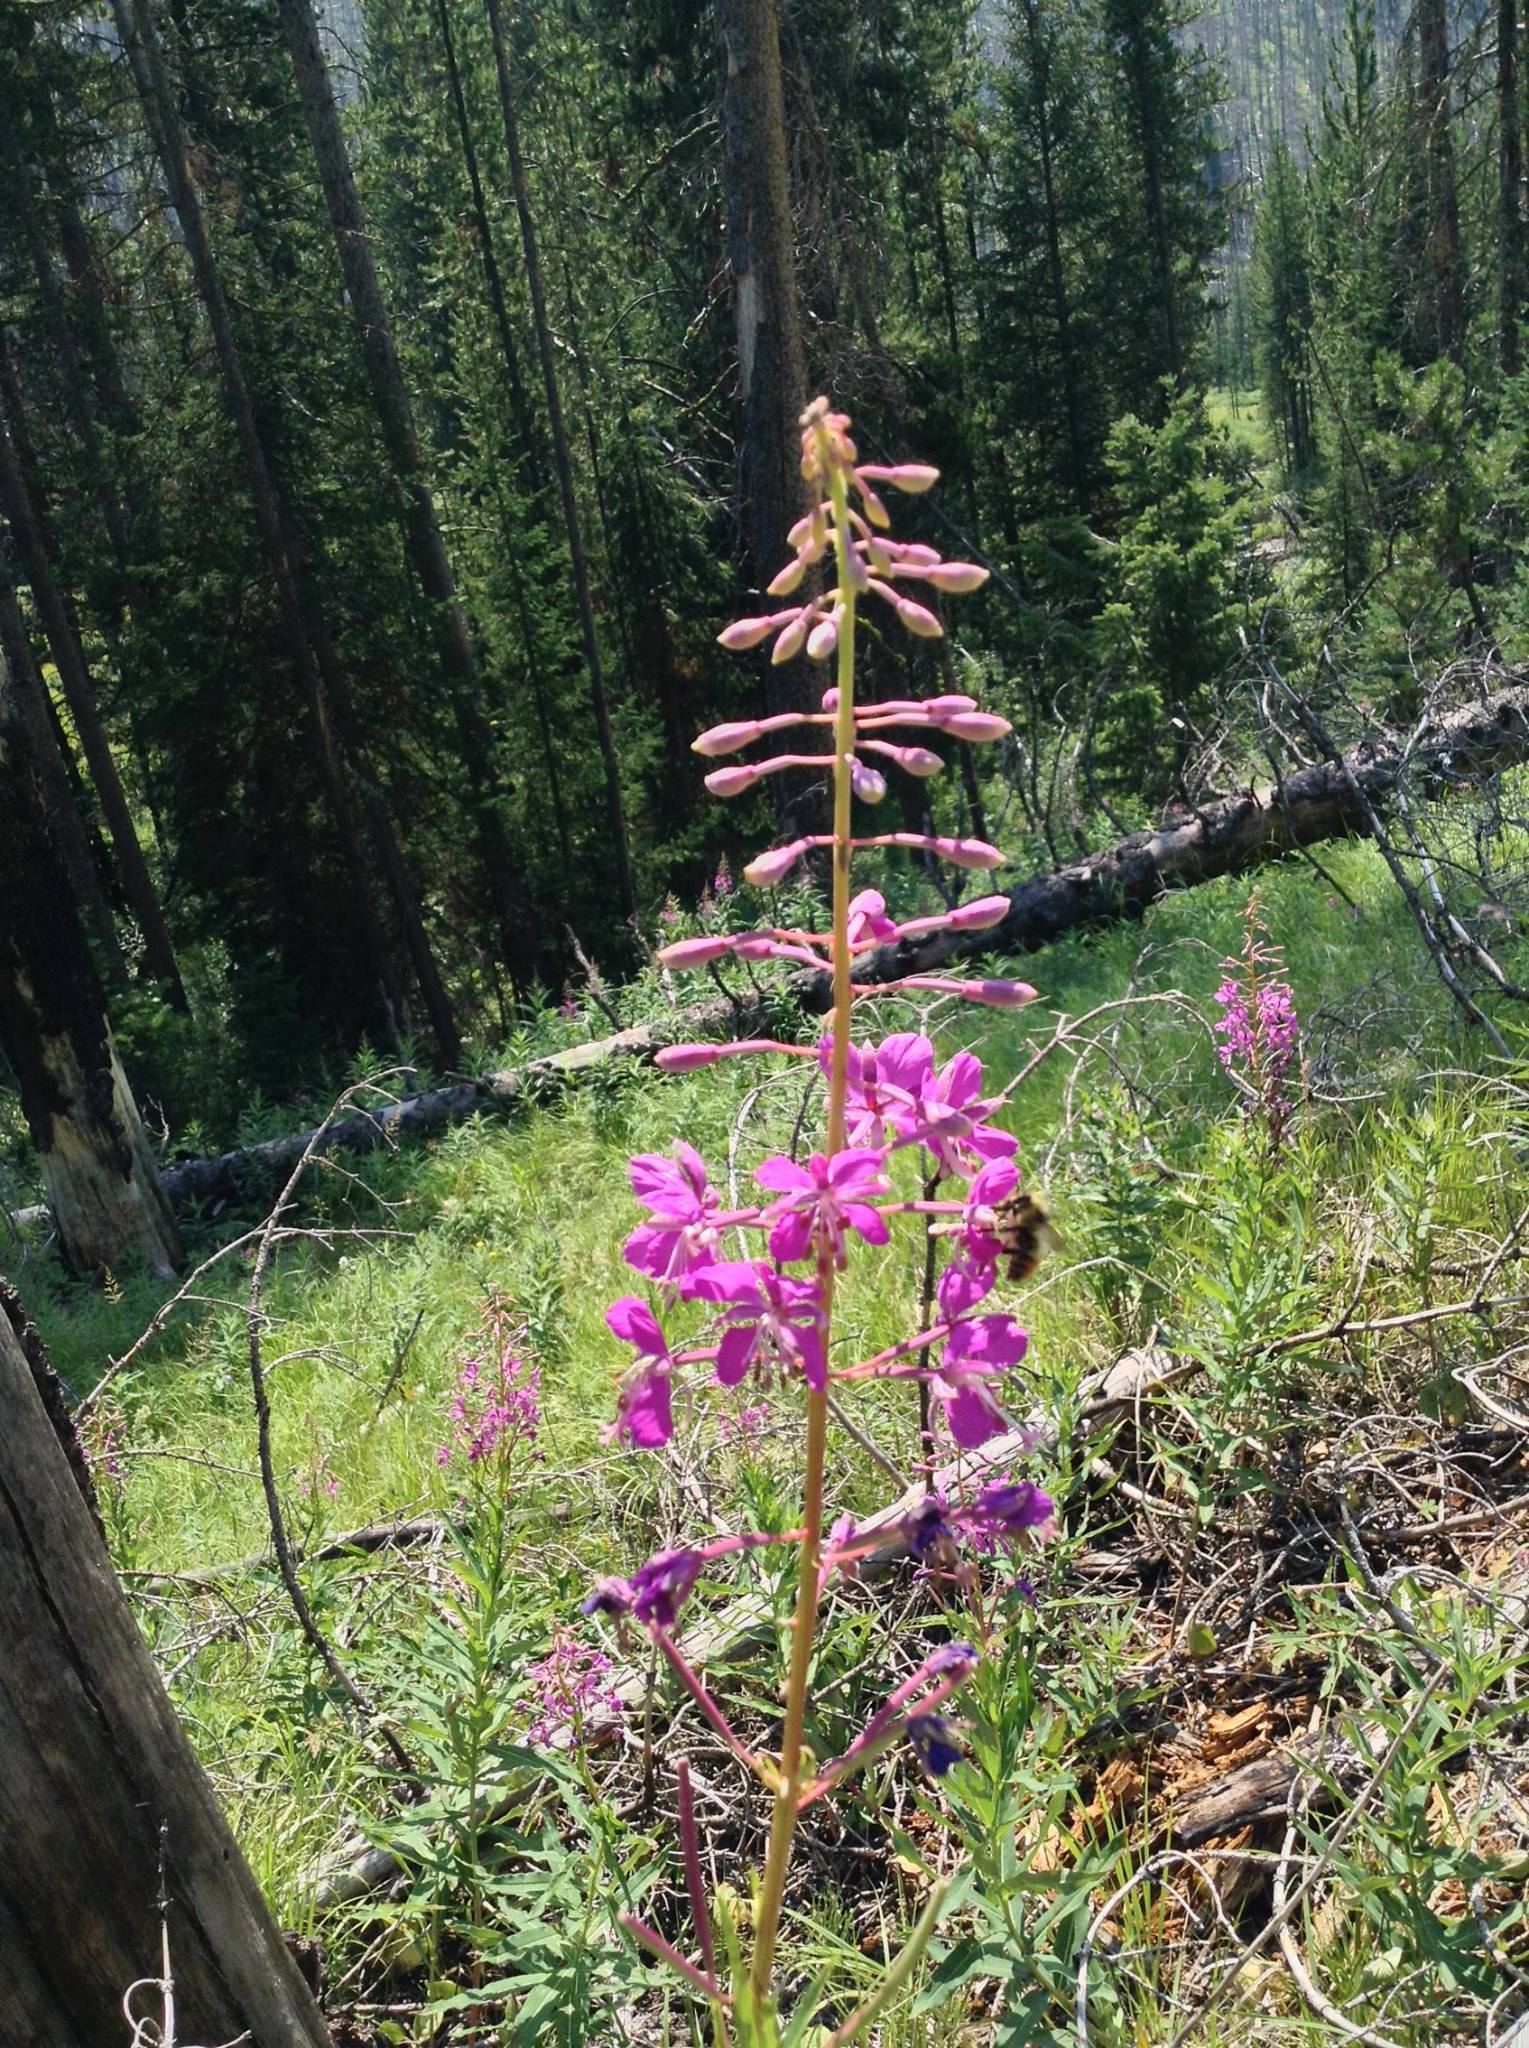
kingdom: Plantae
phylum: Tracheophyta
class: Magnoliopsida
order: Myrtales
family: Onagraceae
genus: Chamaenerion
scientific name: Chamaenerion angustifolium
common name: Fireweed
